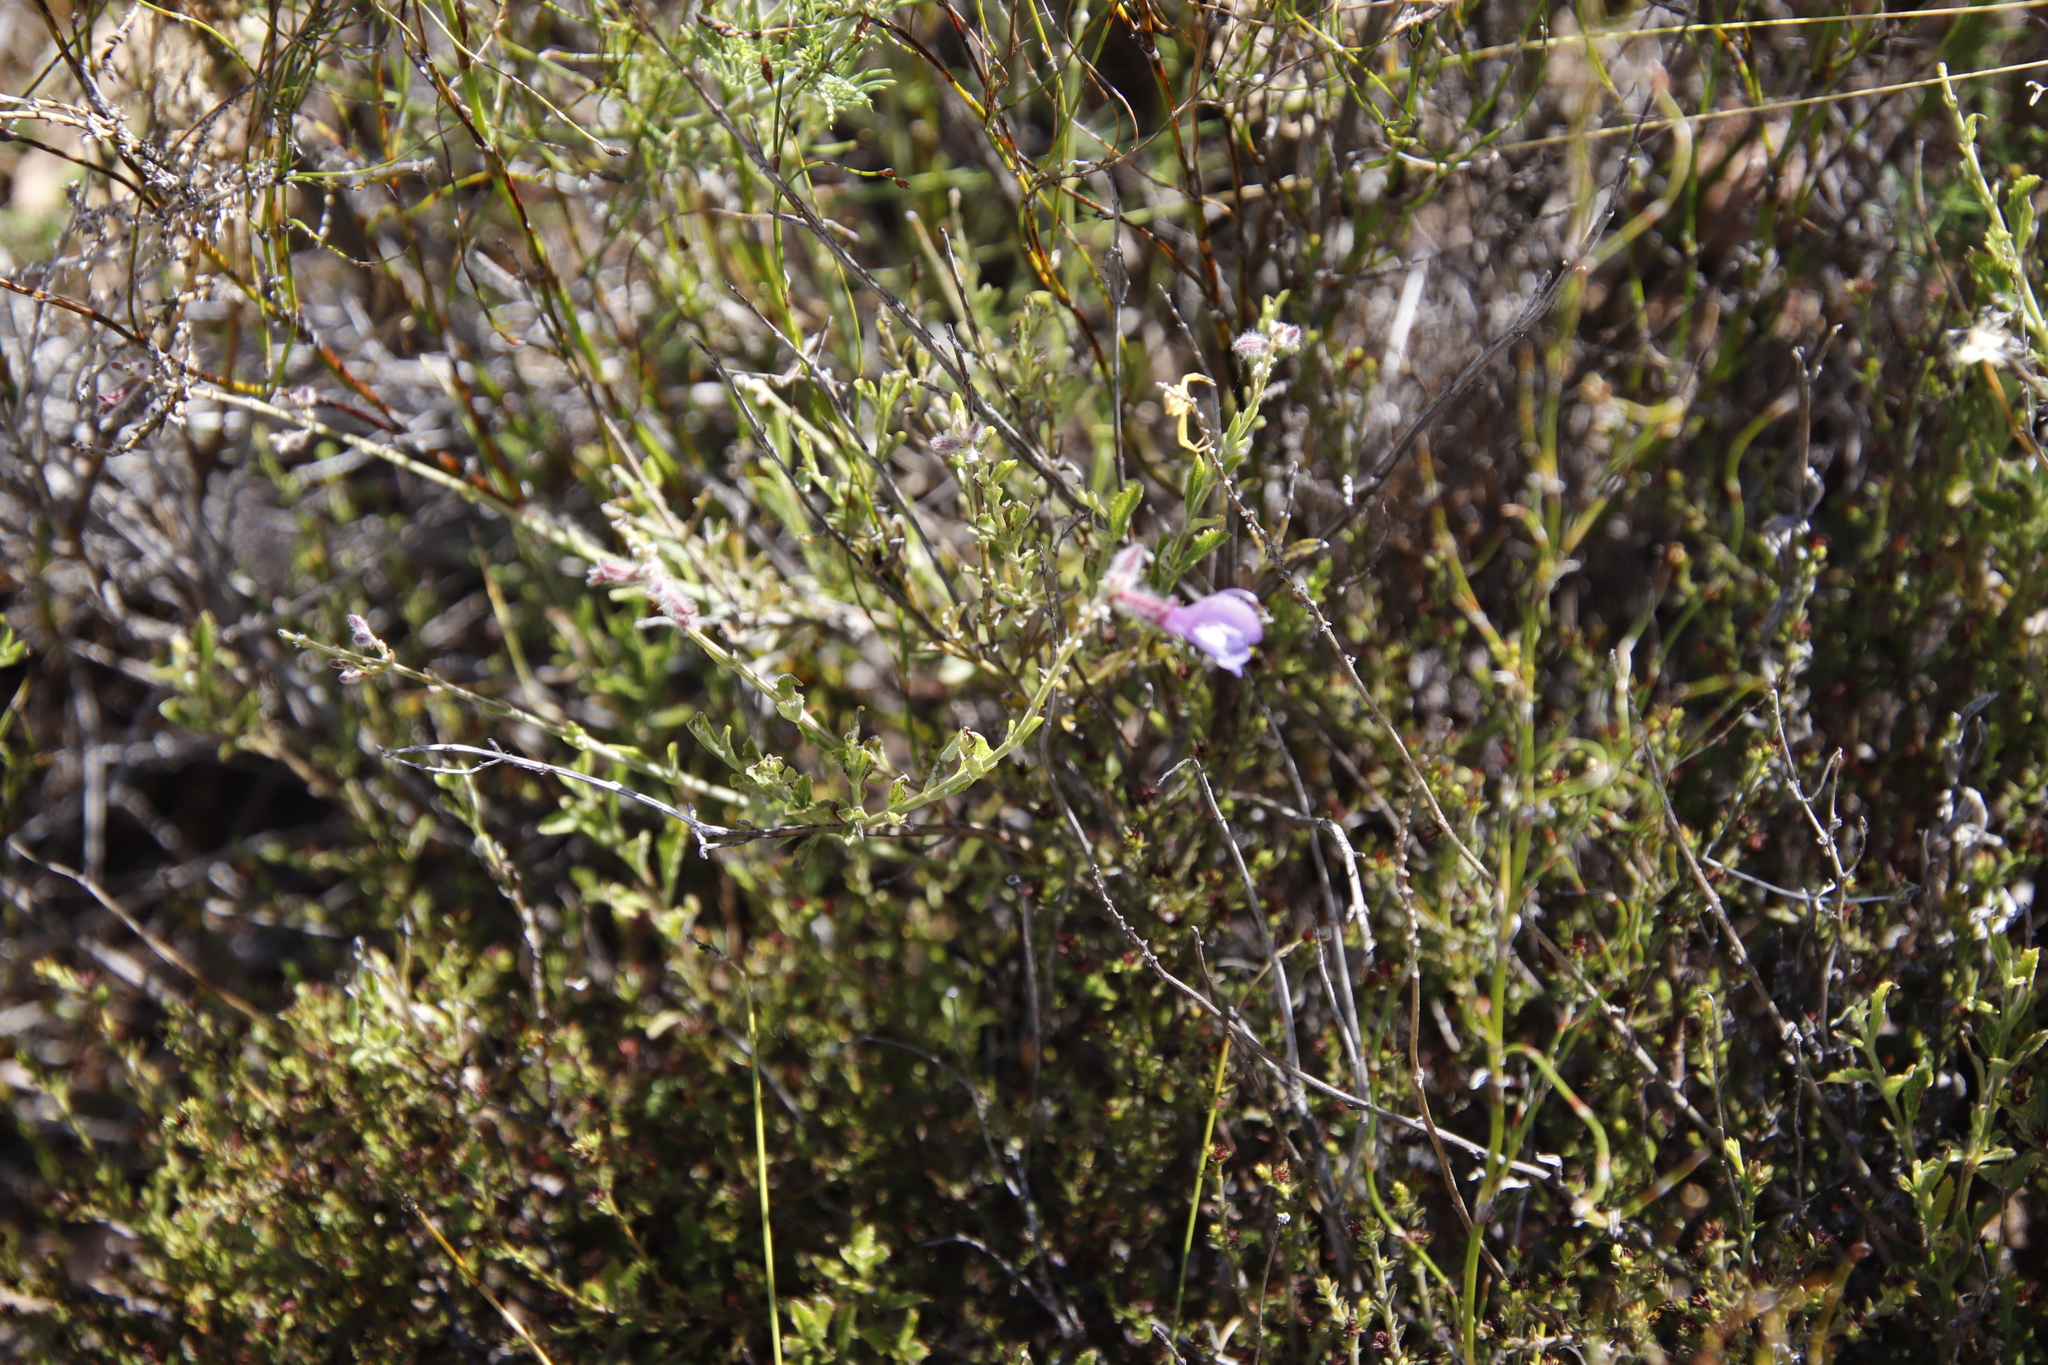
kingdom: Plantae
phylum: Tracheophyta
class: Magnoliopsida
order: Lamiales
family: Lamiaceae
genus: Salvia
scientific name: Salvia albicaulis
